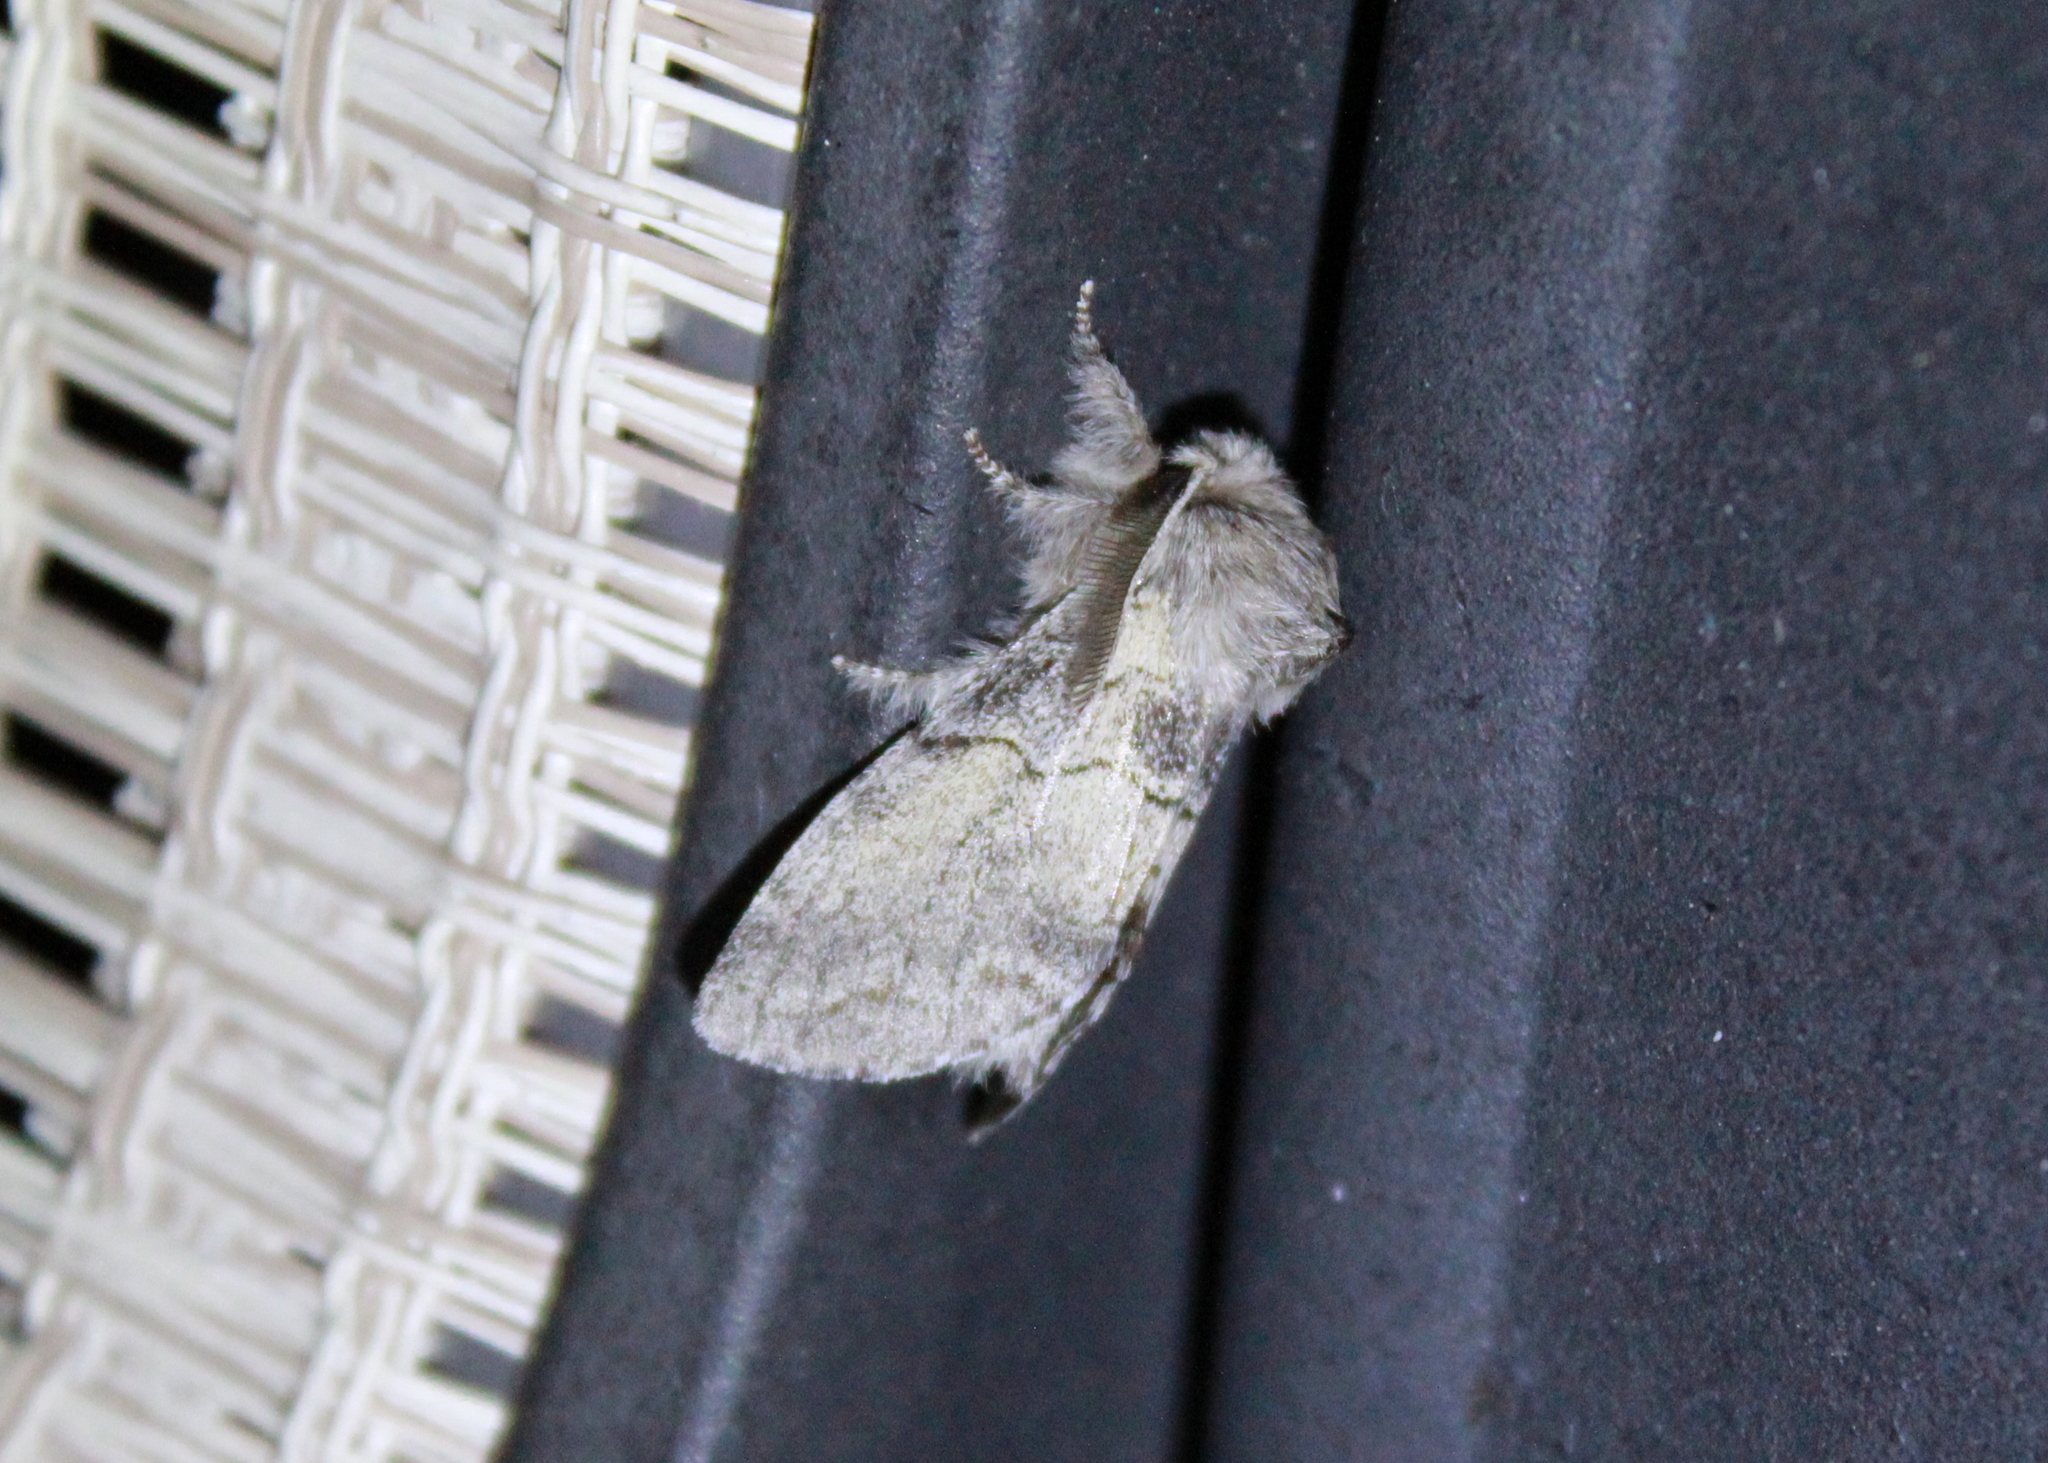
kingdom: Animalia
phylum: Arthropoda
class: Insecta
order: Lepidoptera
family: Notodontidae
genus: Gluphisia
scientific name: Gluphisia lintneri
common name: Lintner's gluphisia moth
